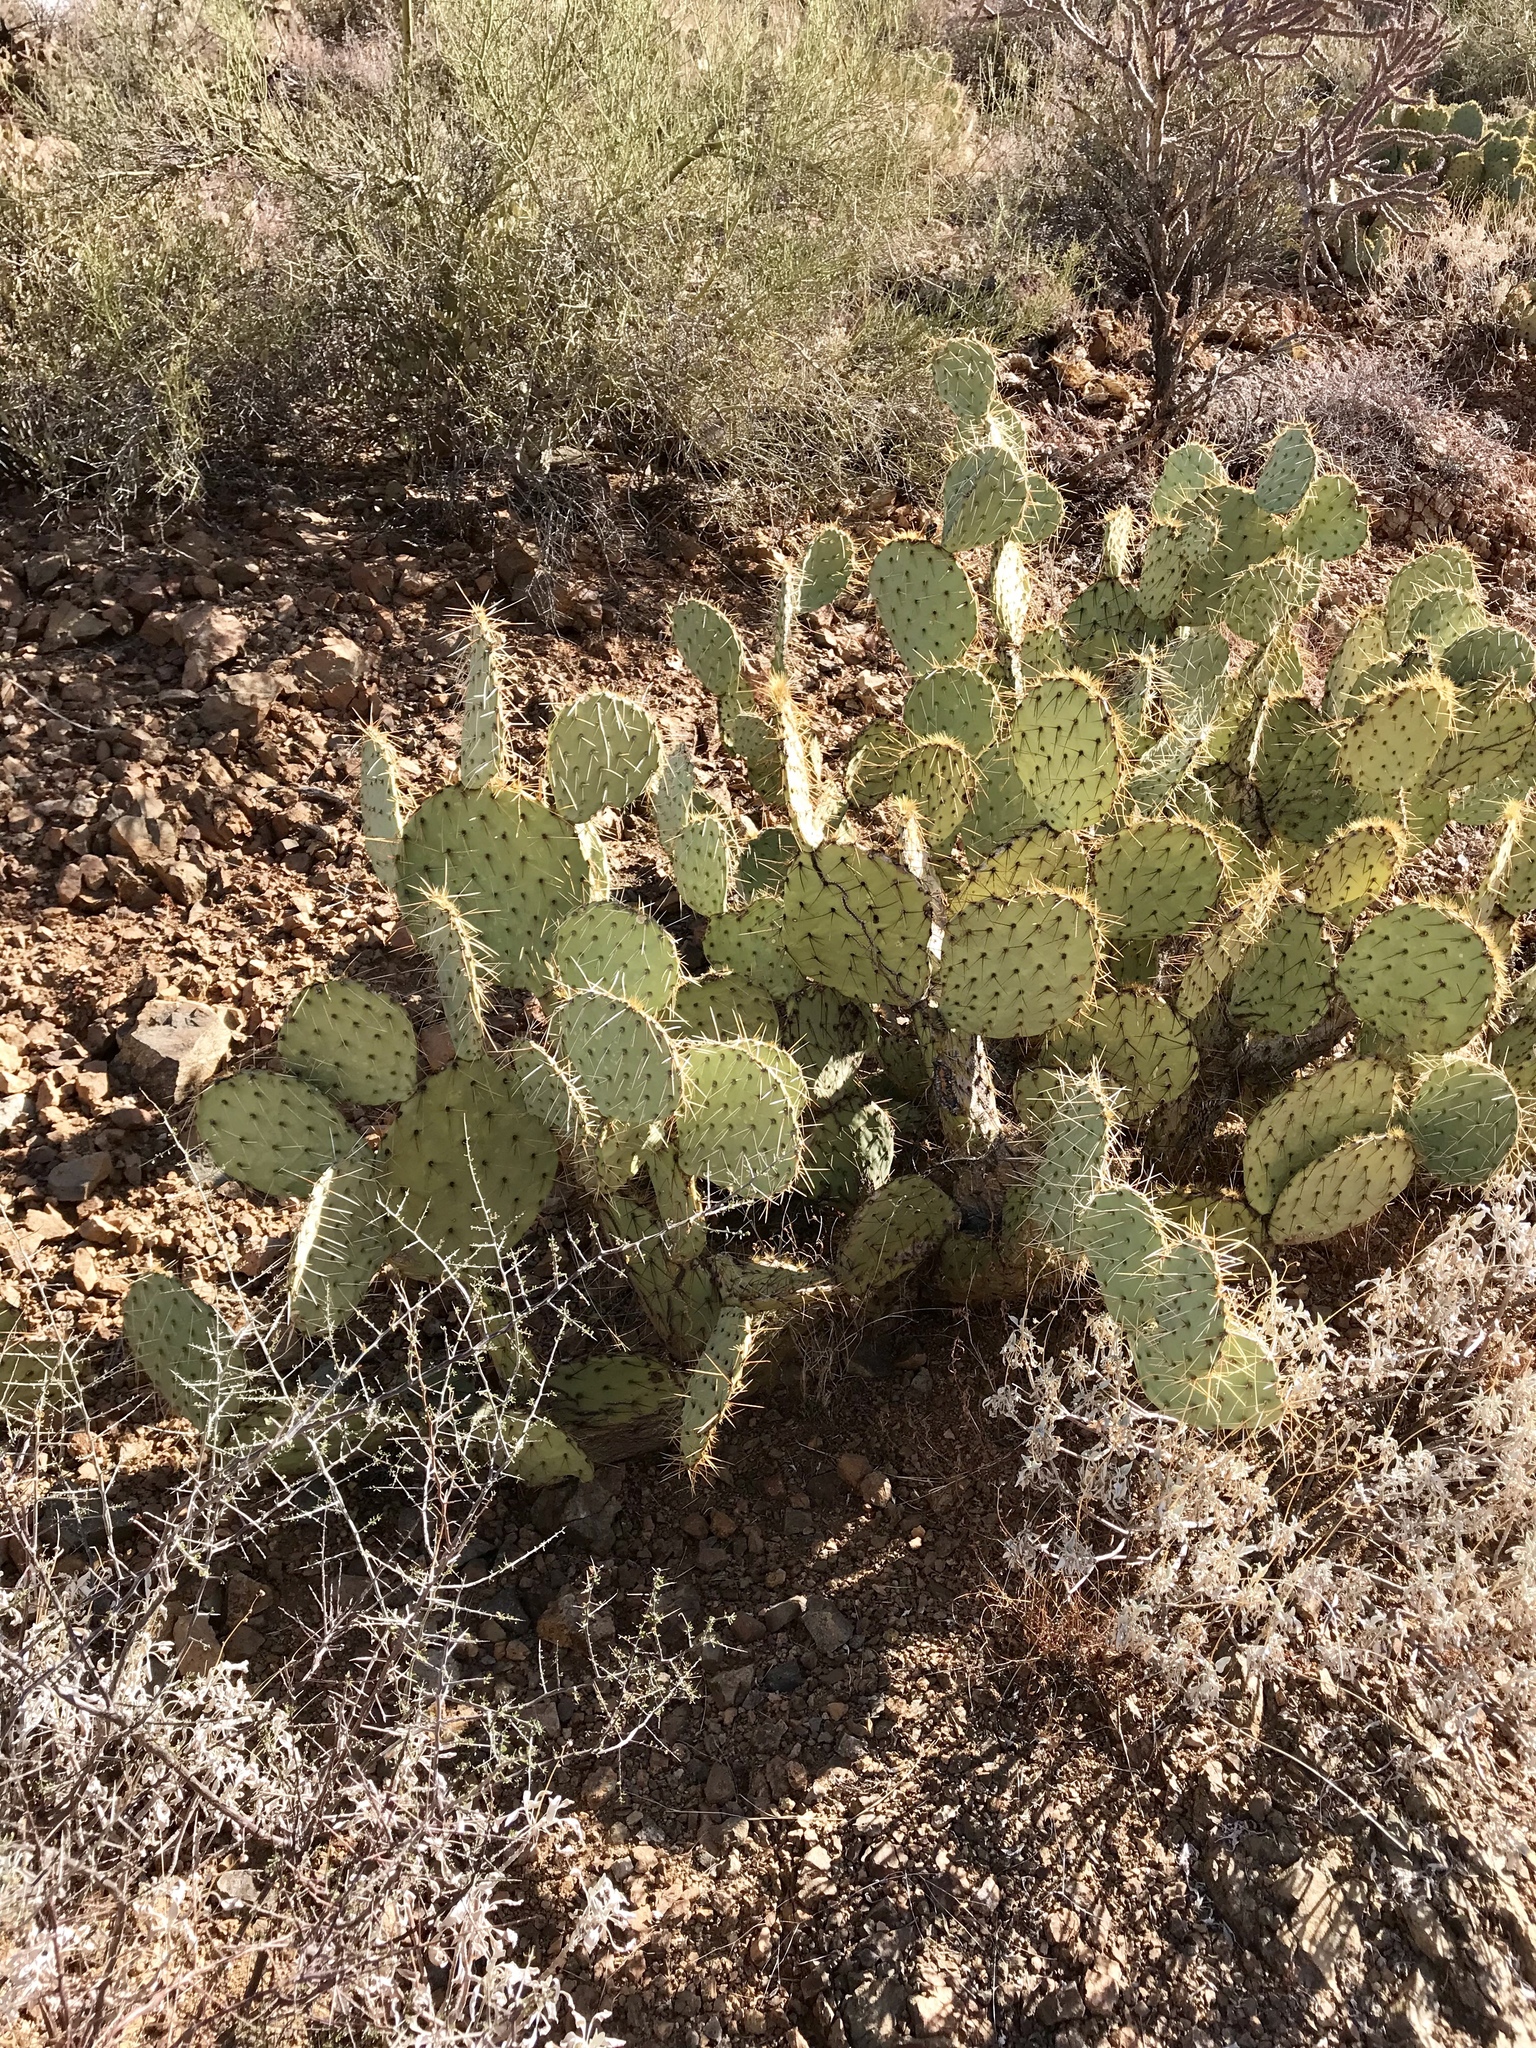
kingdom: Plantae
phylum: Tracheophyta
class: Magnoliopsida
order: Caryophyllales
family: Cactaceae
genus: Opuntia
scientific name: Opuntia engelmannii
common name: Cactus-apple
